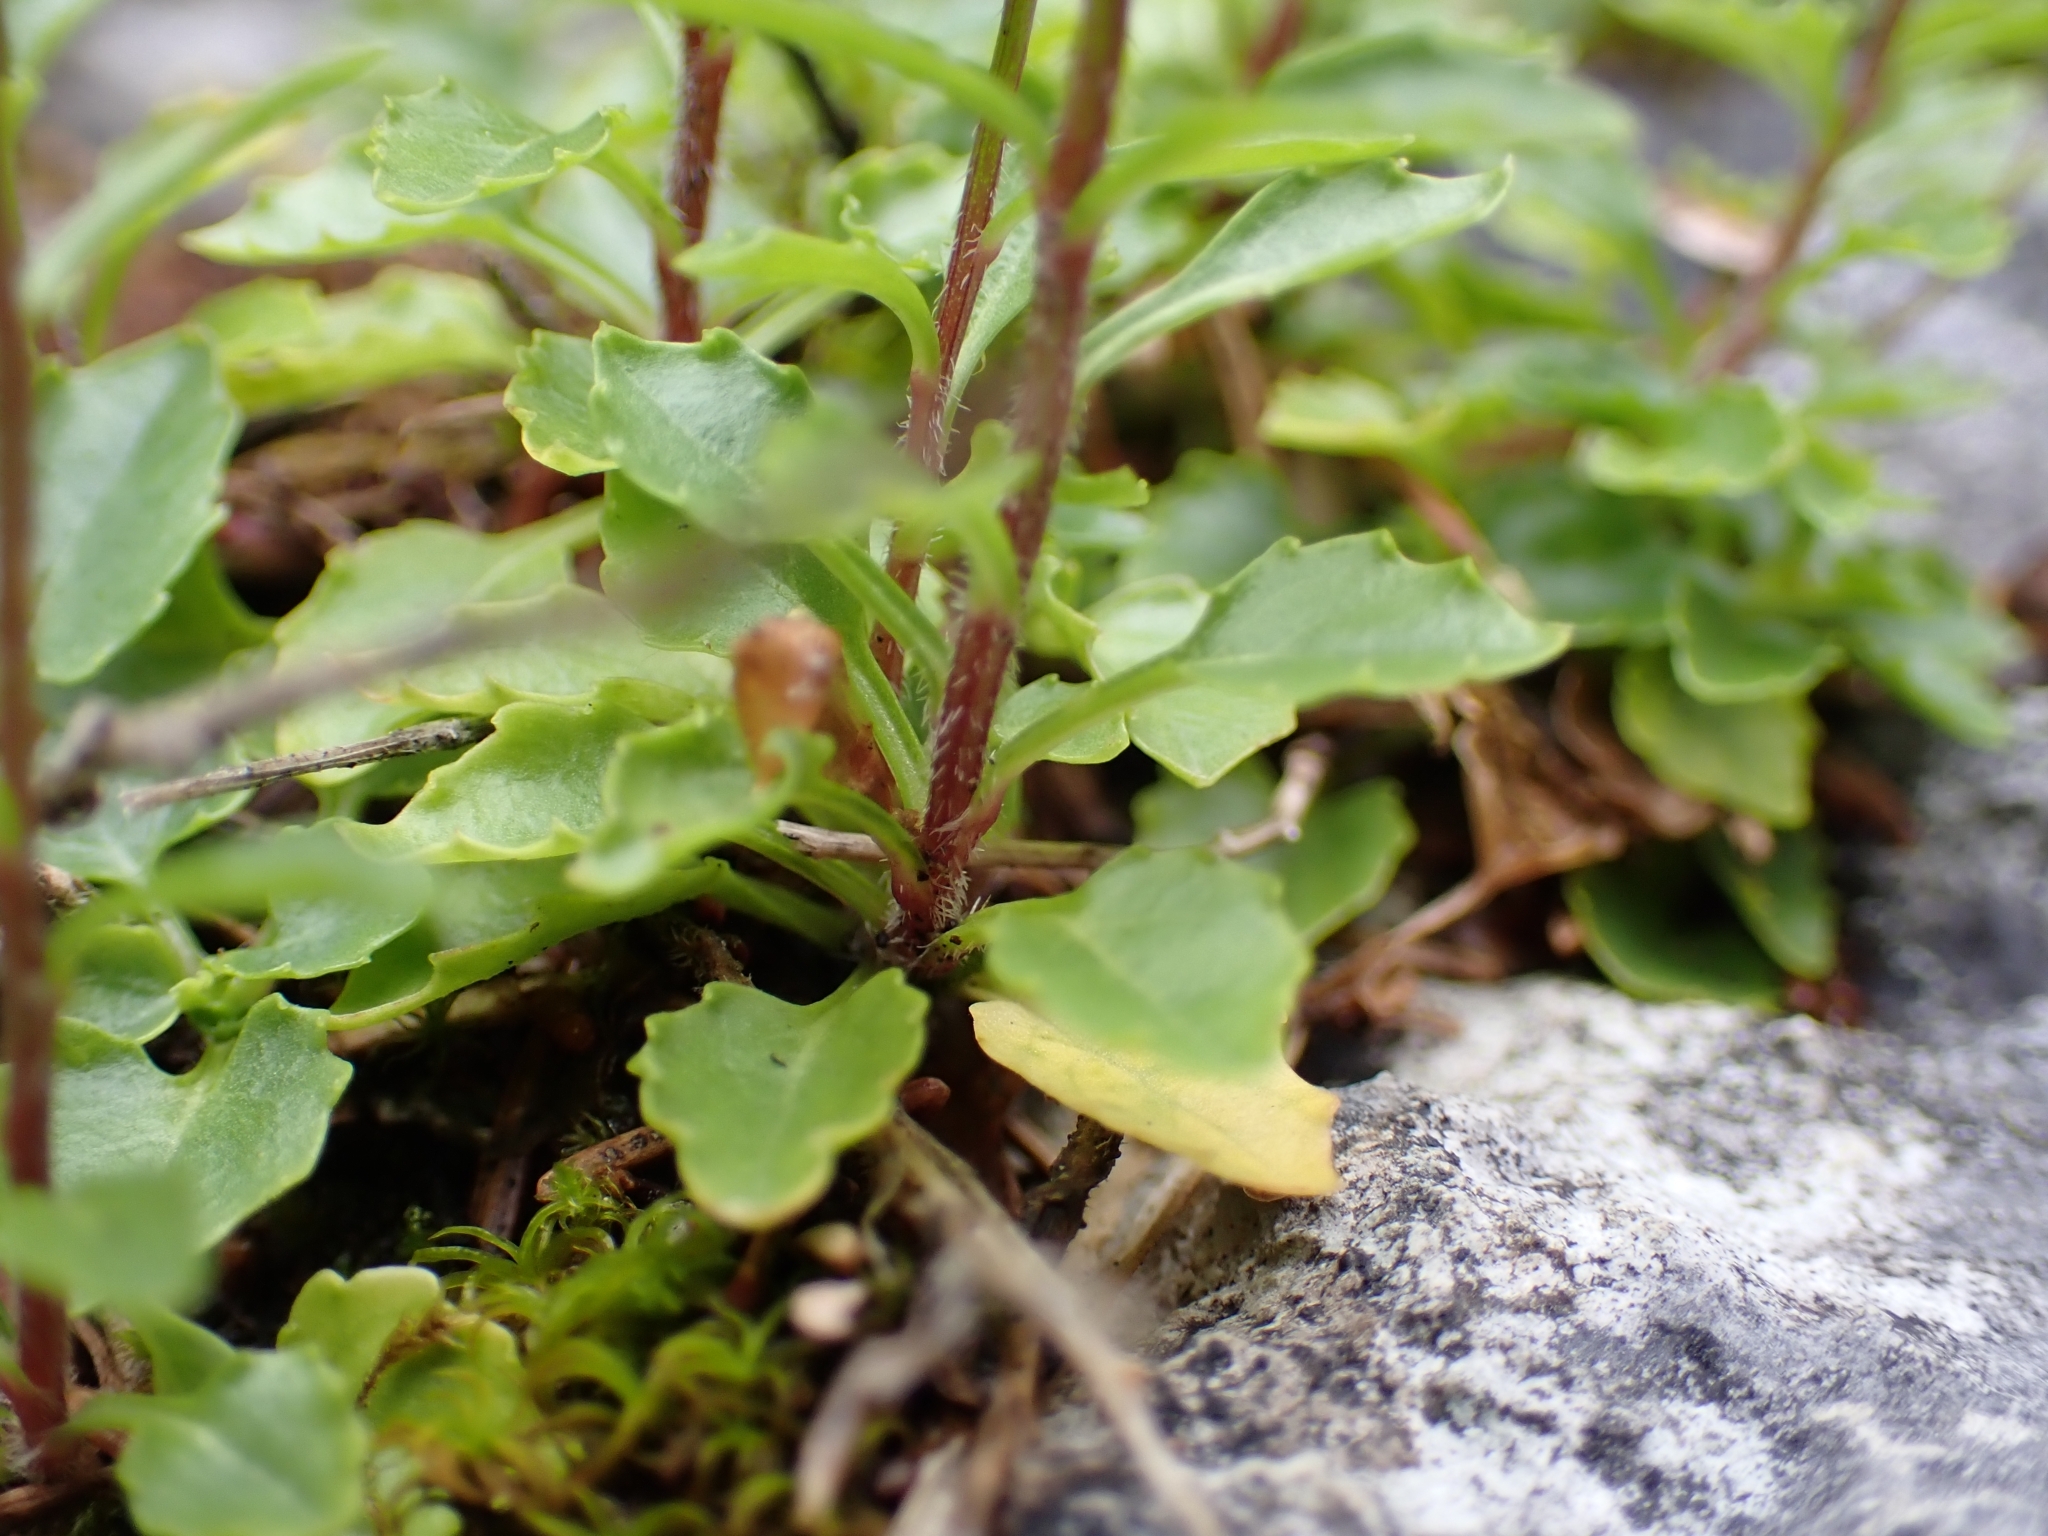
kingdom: Plantae
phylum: Tracheophyta
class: Magnoliopsida
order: Asterales
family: Campanulaceae
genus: Campanula
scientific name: Campanula cochleariifolia
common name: Fairies'-thimbles
